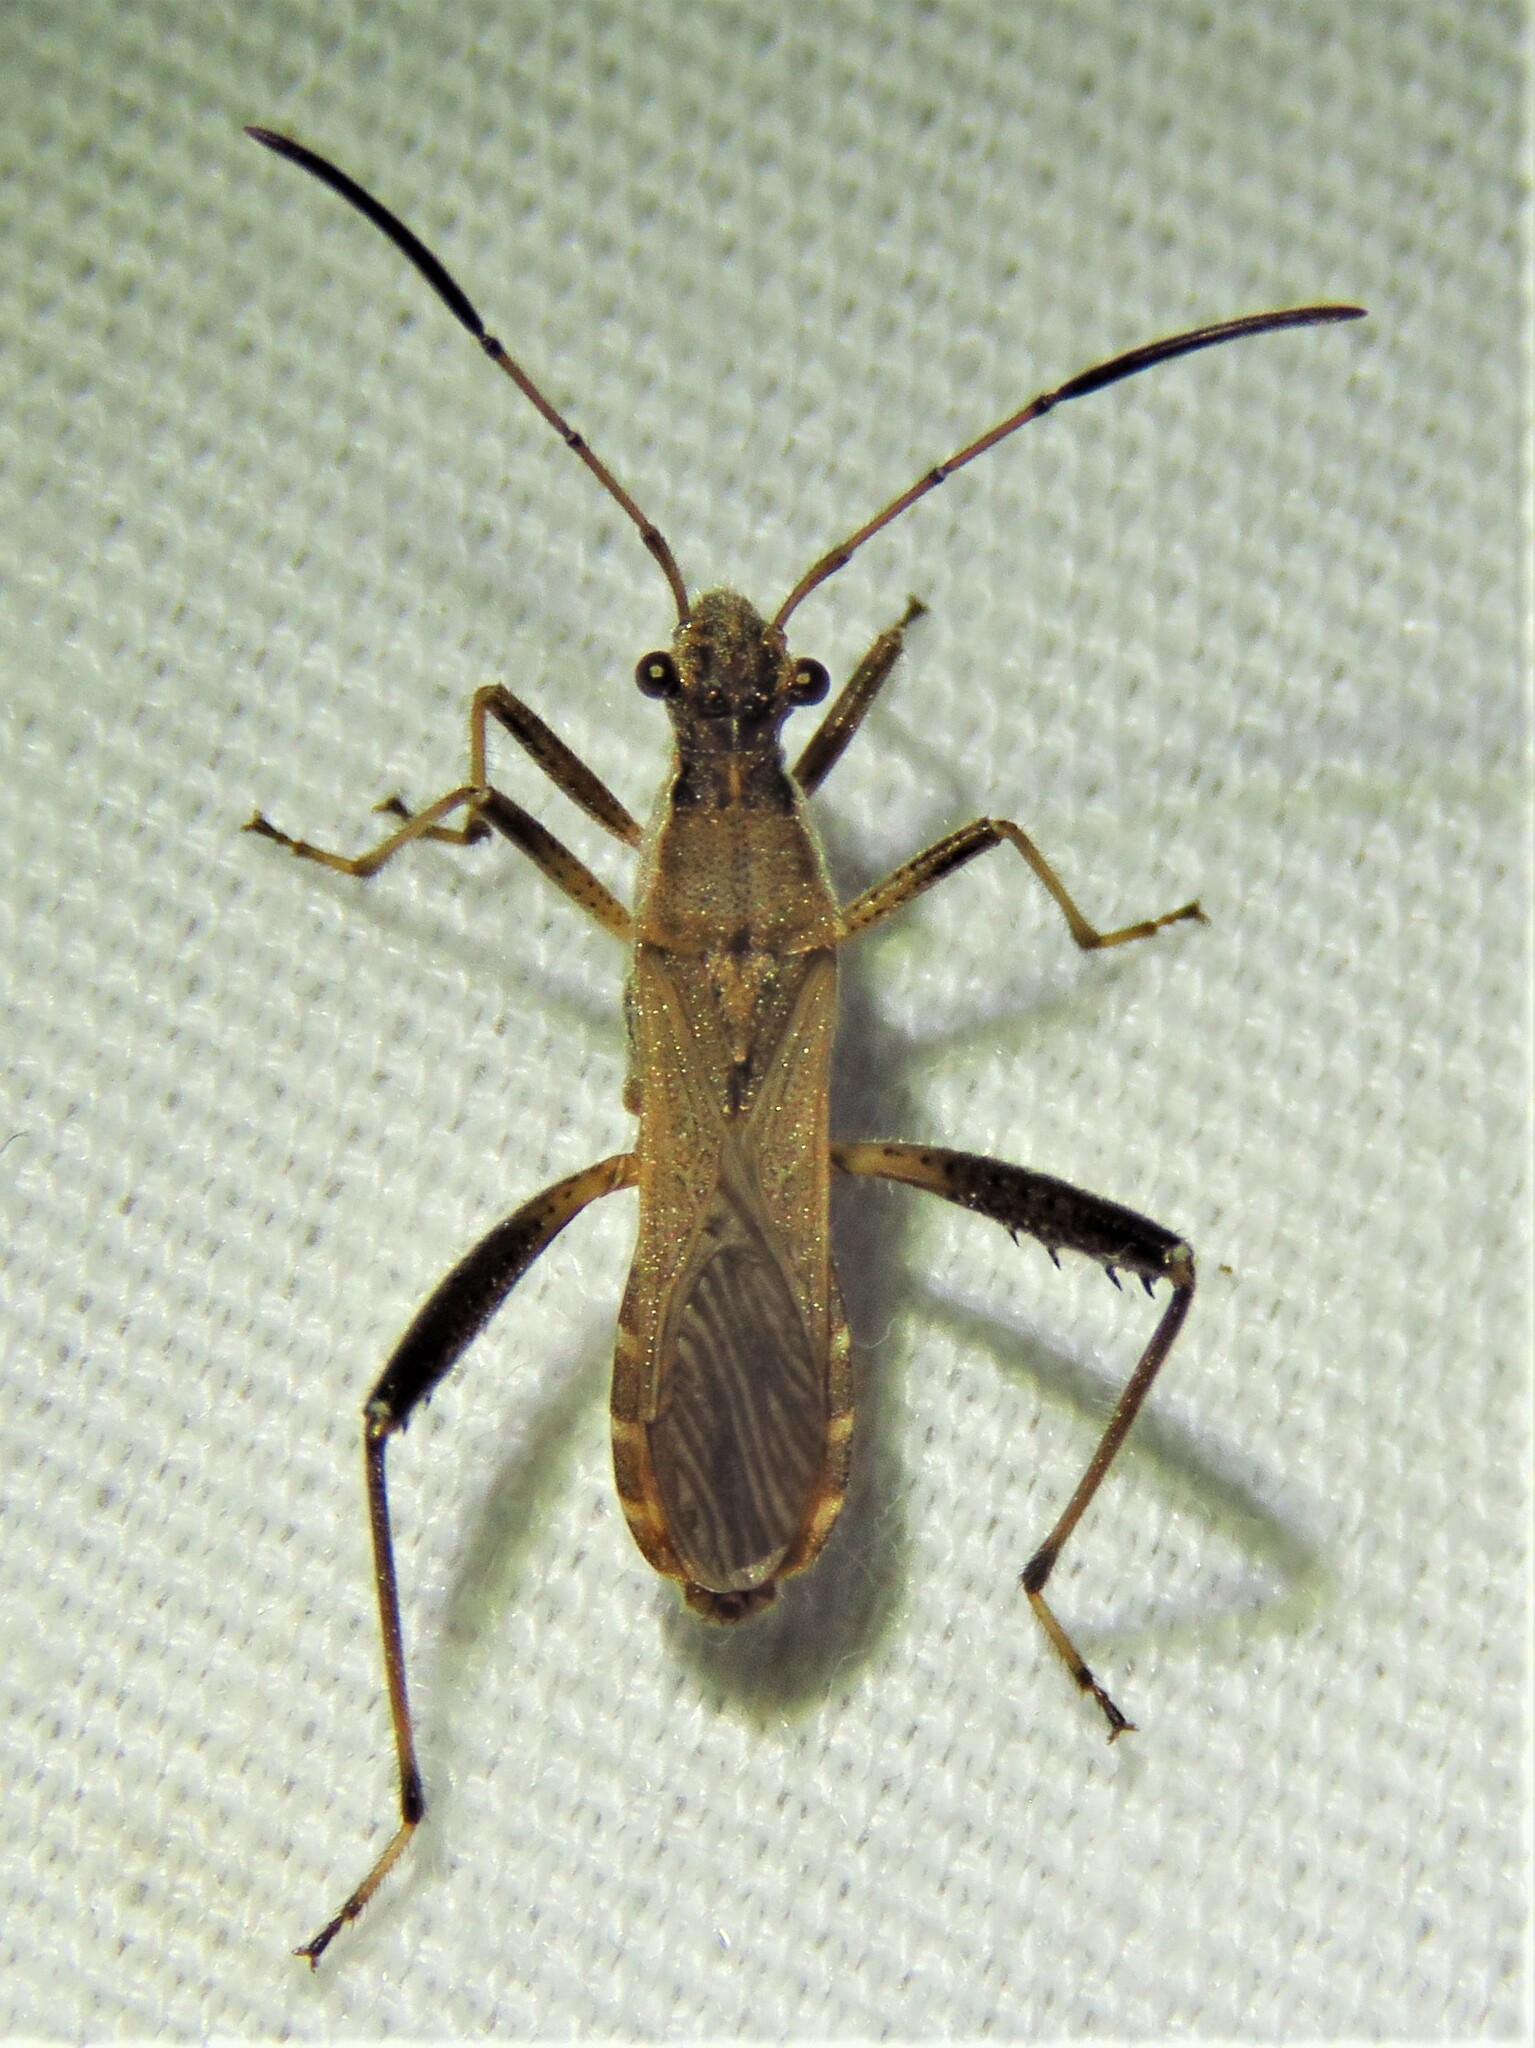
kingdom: Animalia
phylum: Arthropoda
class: Insecta
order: Hemiptera
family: Alydidae
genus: Alydus
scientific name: Alydus pilosulus
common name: Broad-headed bug
